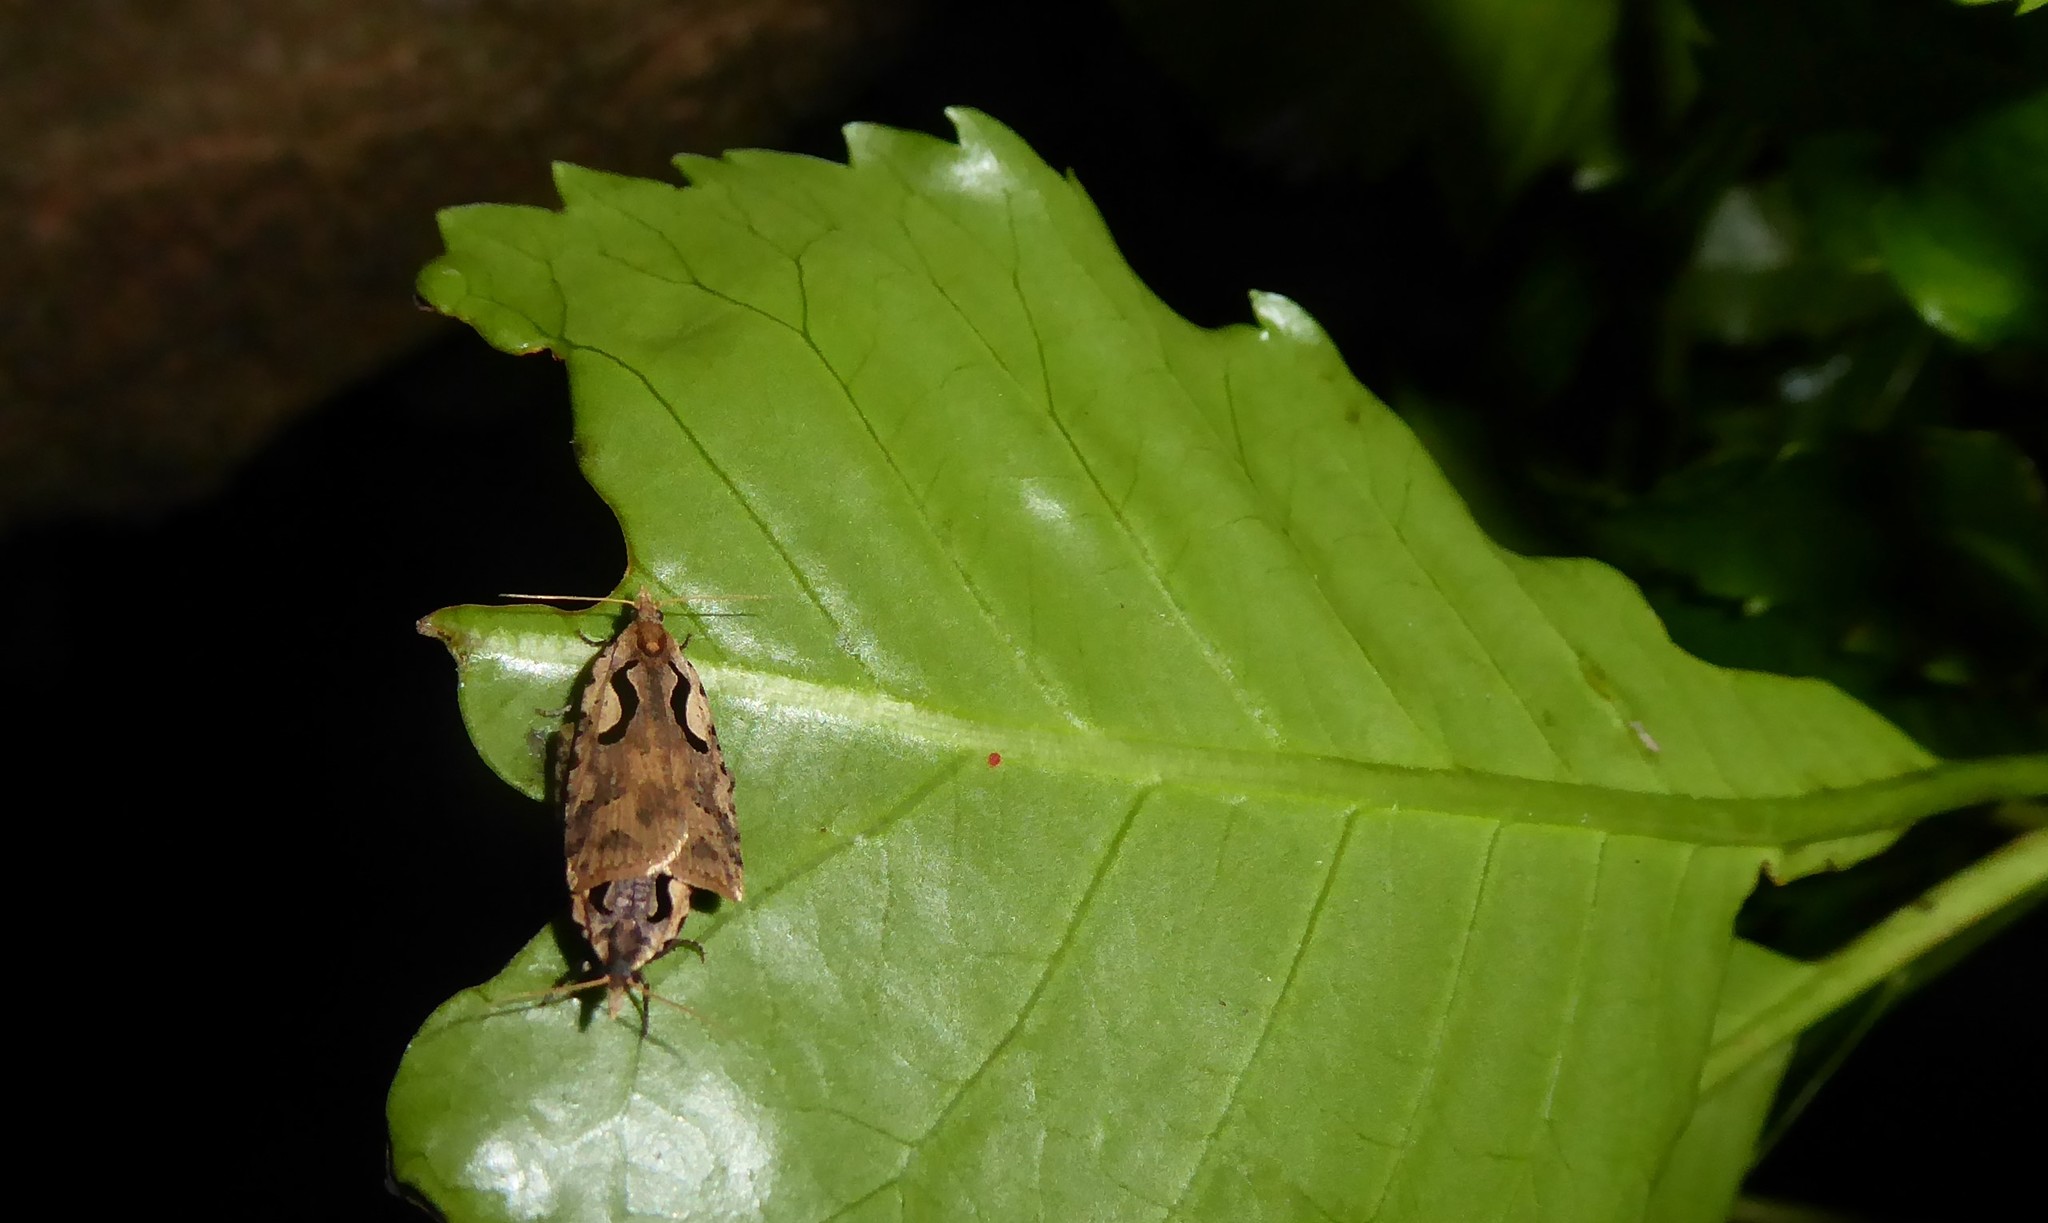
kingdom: Animalia
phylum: Arthropoda
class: Insecta
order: Lepidoptera
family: Tortricidae
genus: Cnephasia
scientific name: Cnephasia jactatana
